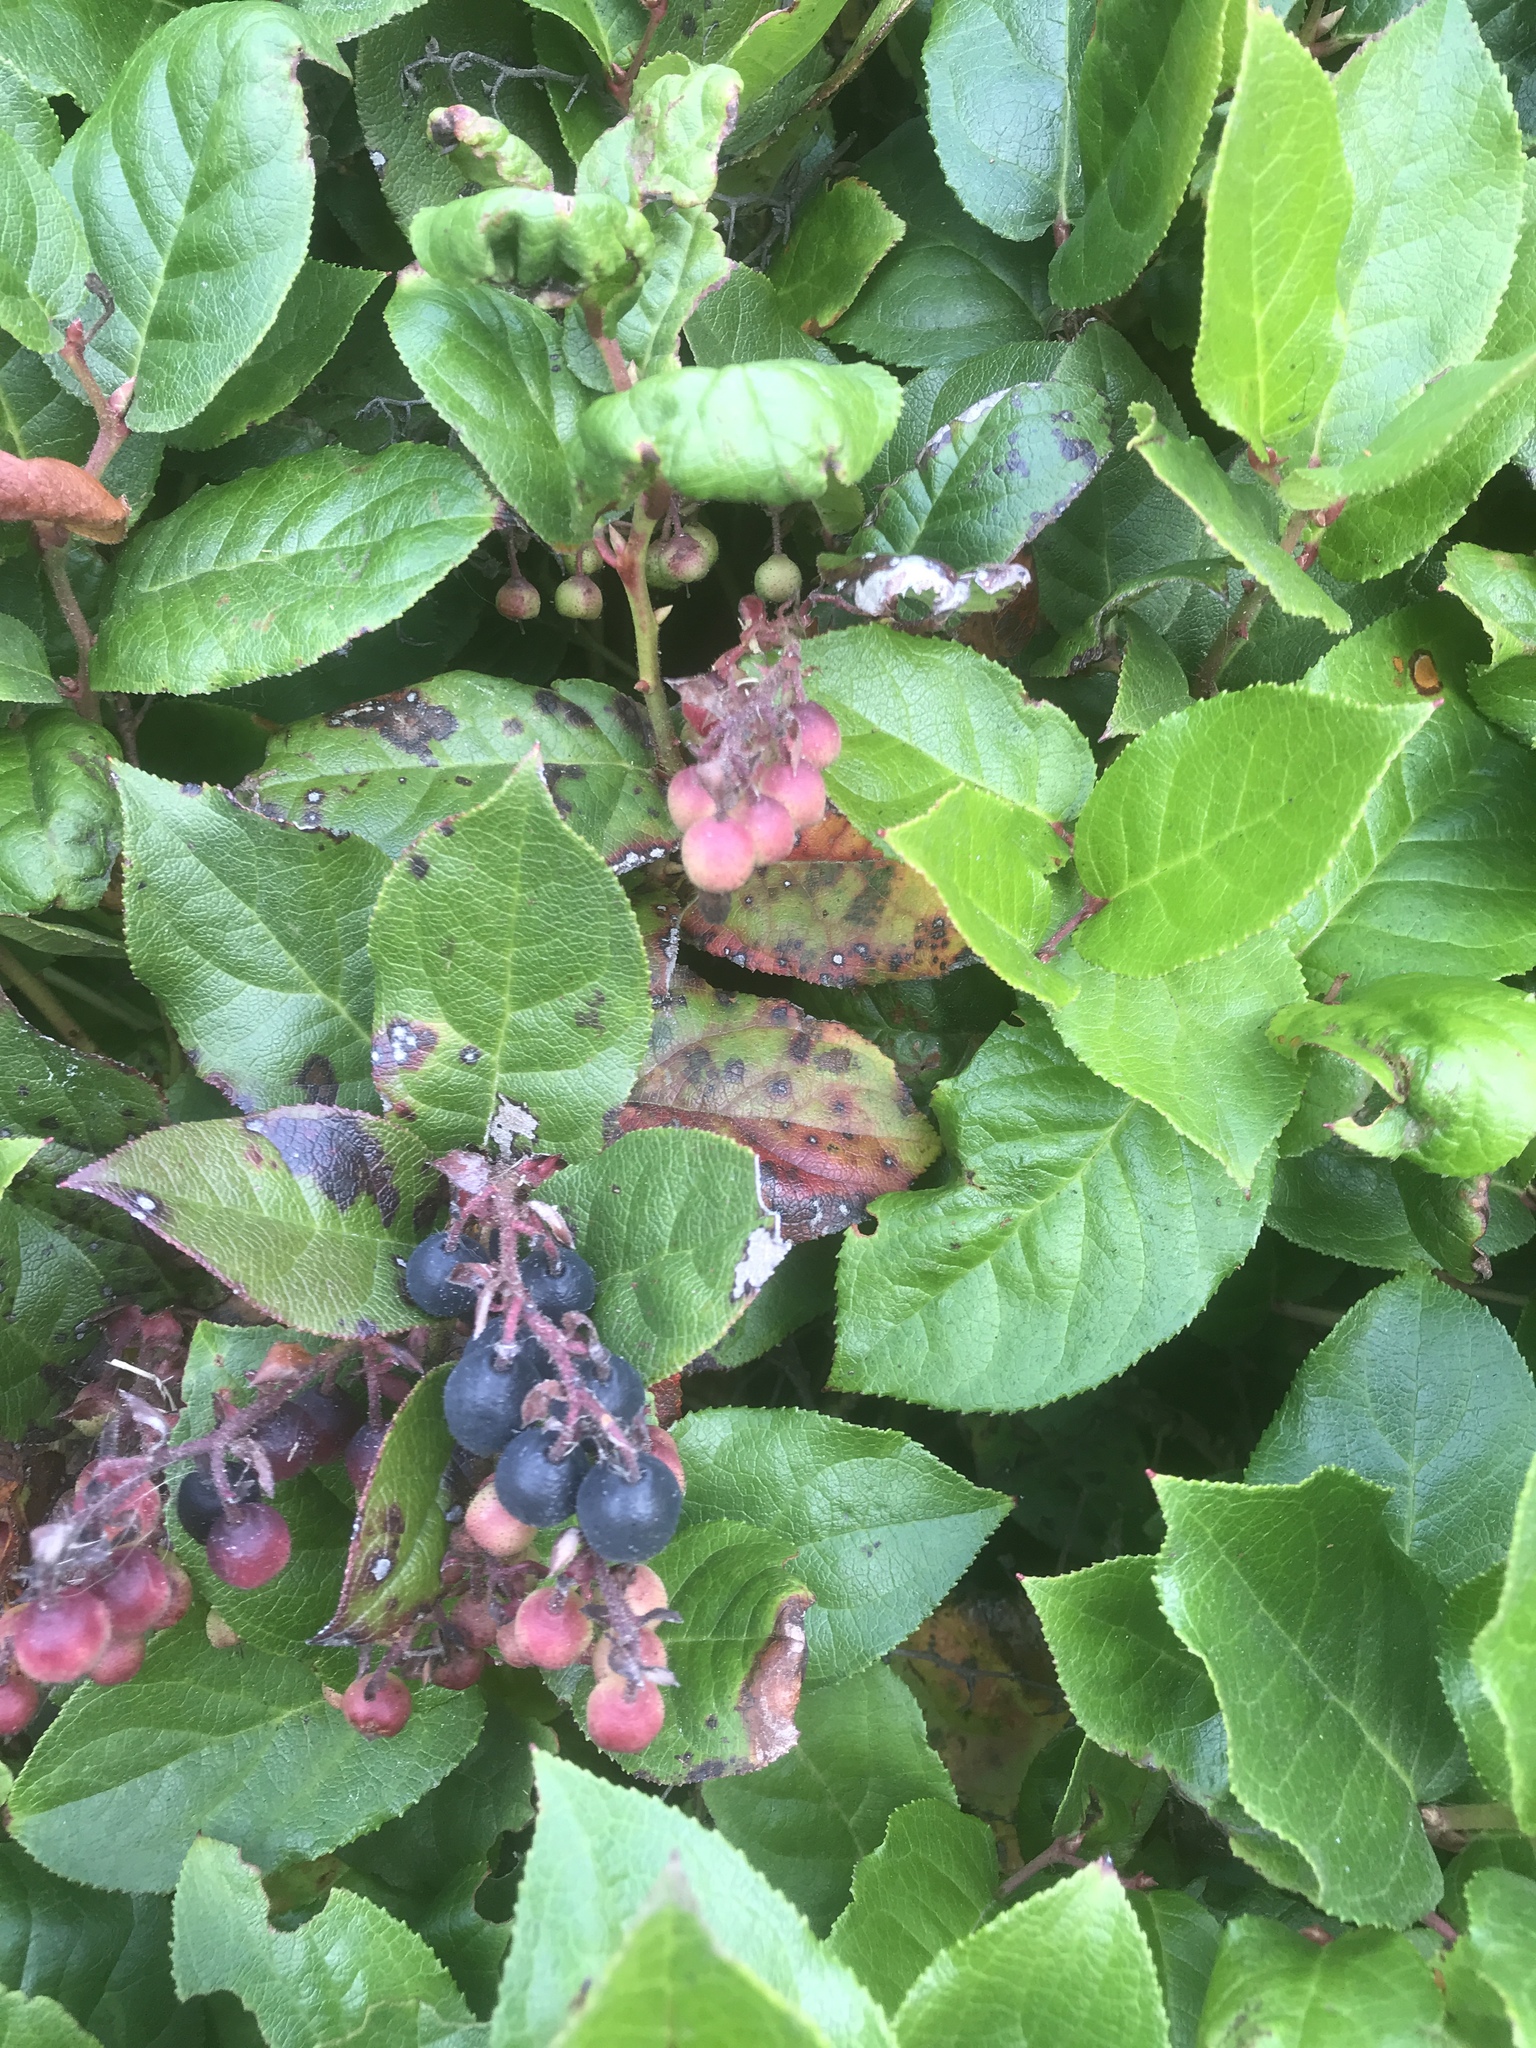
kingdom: Plantae
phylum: Tracheophyta
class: Magnoliopsida
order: Ericales
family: Ericaceae
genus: Gaultheria
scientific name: Gaultheria shallon
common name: Shallon
